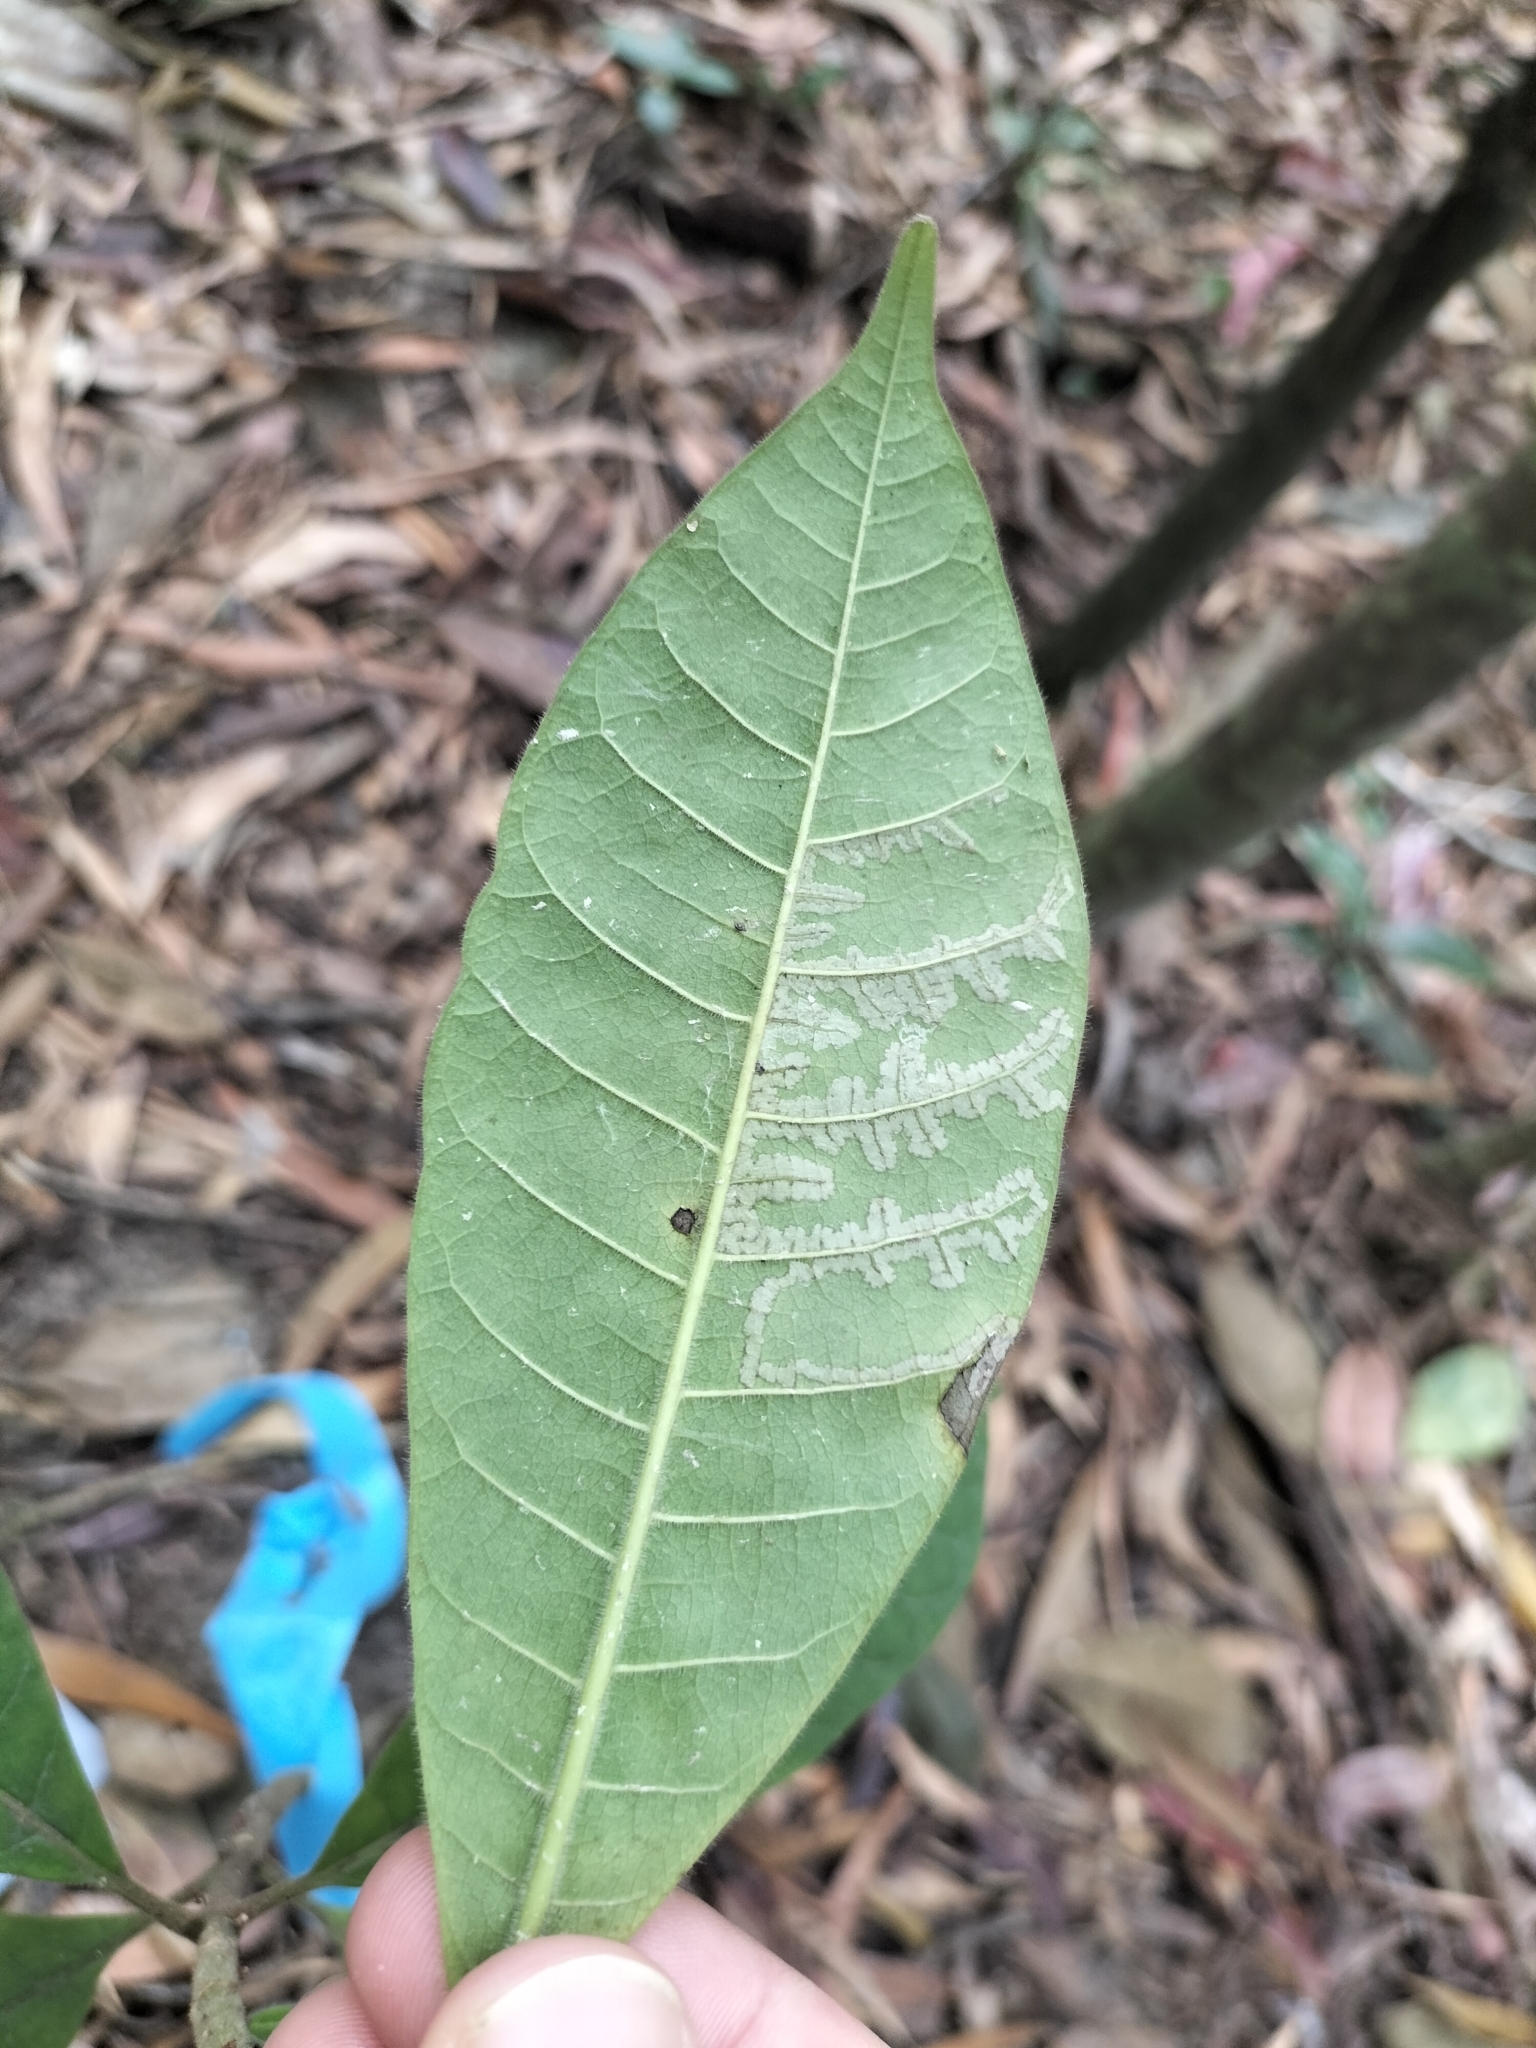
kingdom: Plantae
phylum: Tracheophyta
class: Magnoliopsida
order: Gentianales
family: Apocynaceae
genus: Alstonia
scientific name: Alstonia muelleriana
